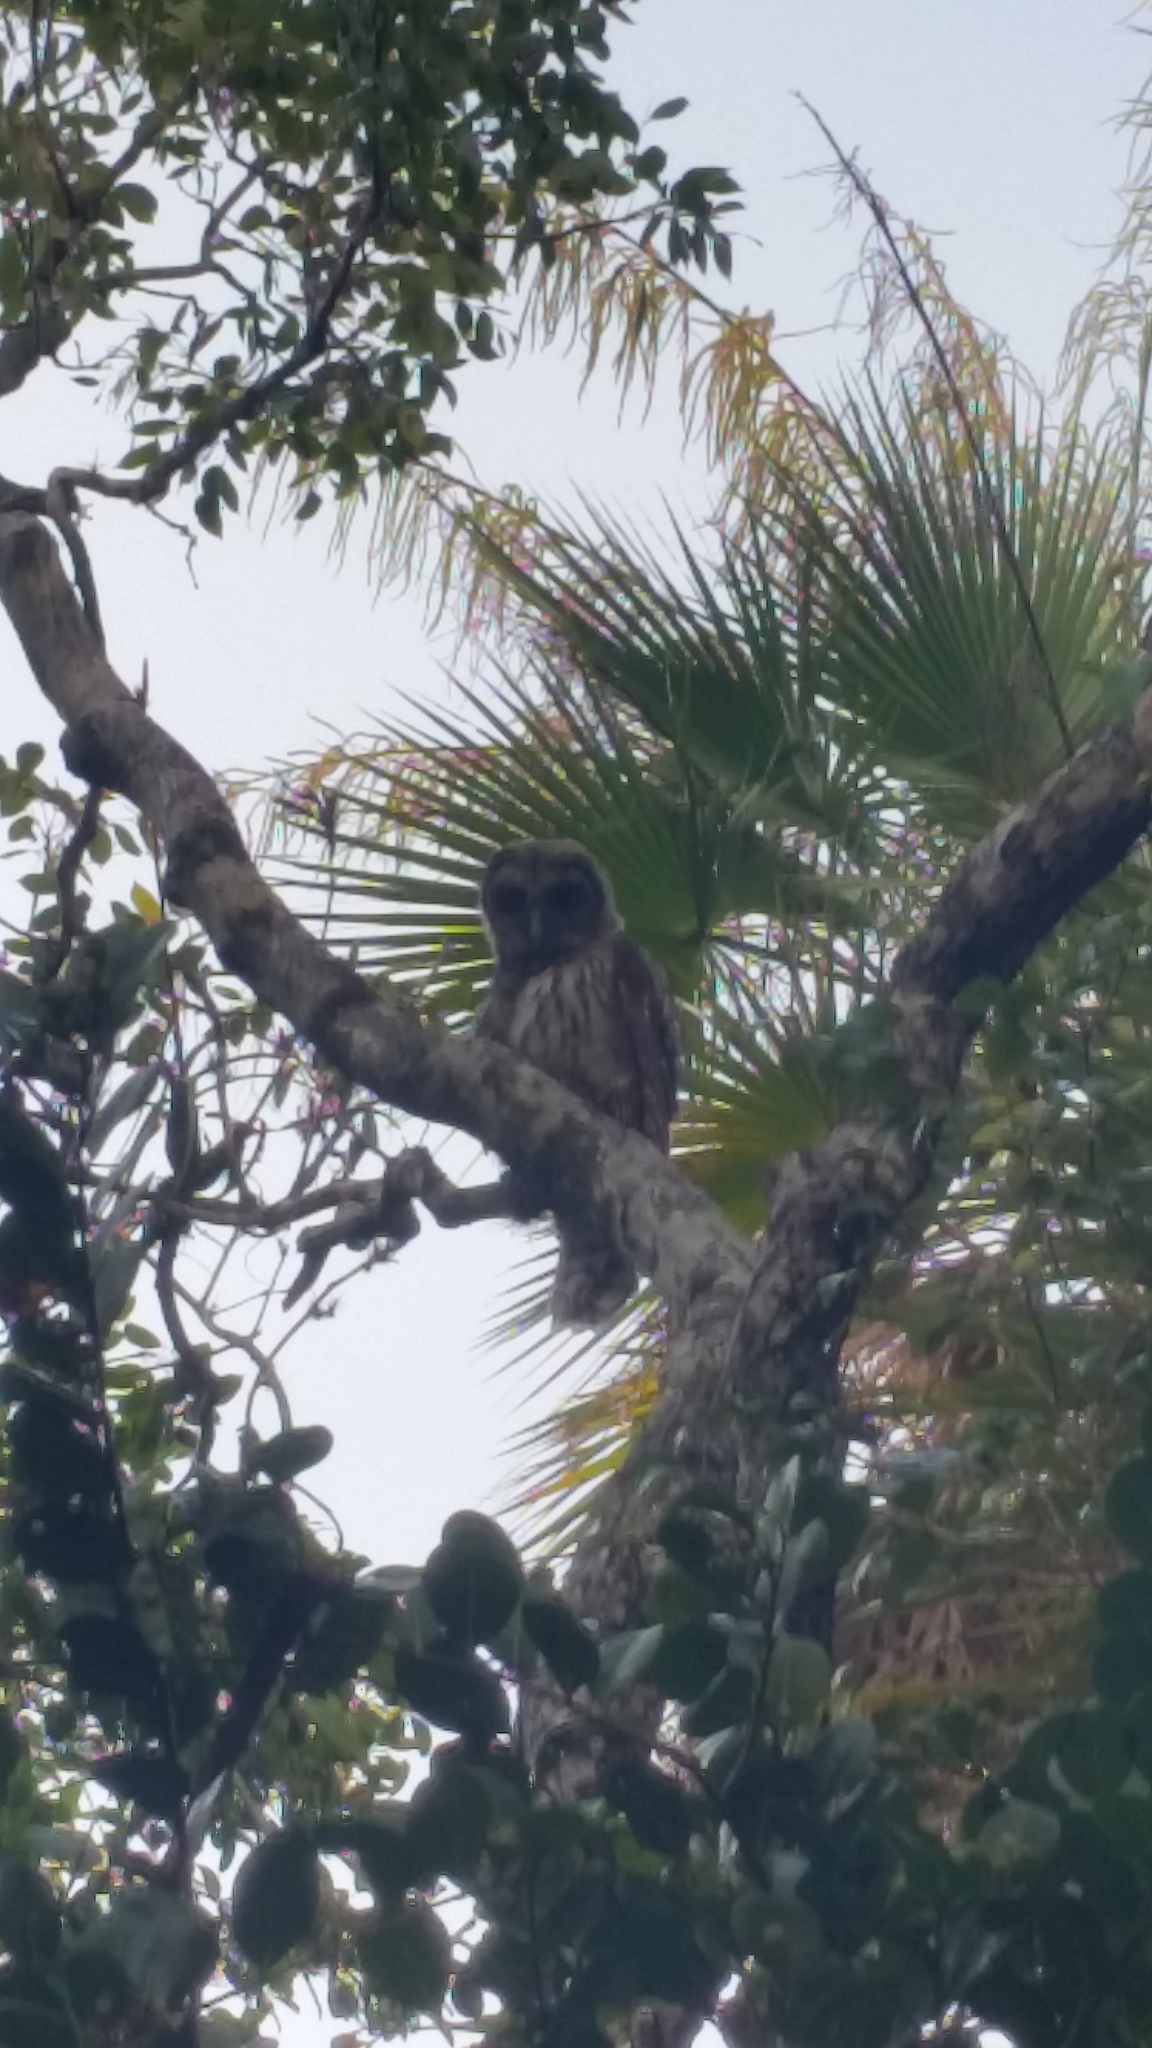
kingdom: Animalia
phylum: Chordata
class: Aves
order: Strigiformes
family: Strigidae
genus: Strix
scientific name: Strix varia
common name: Barred owl
